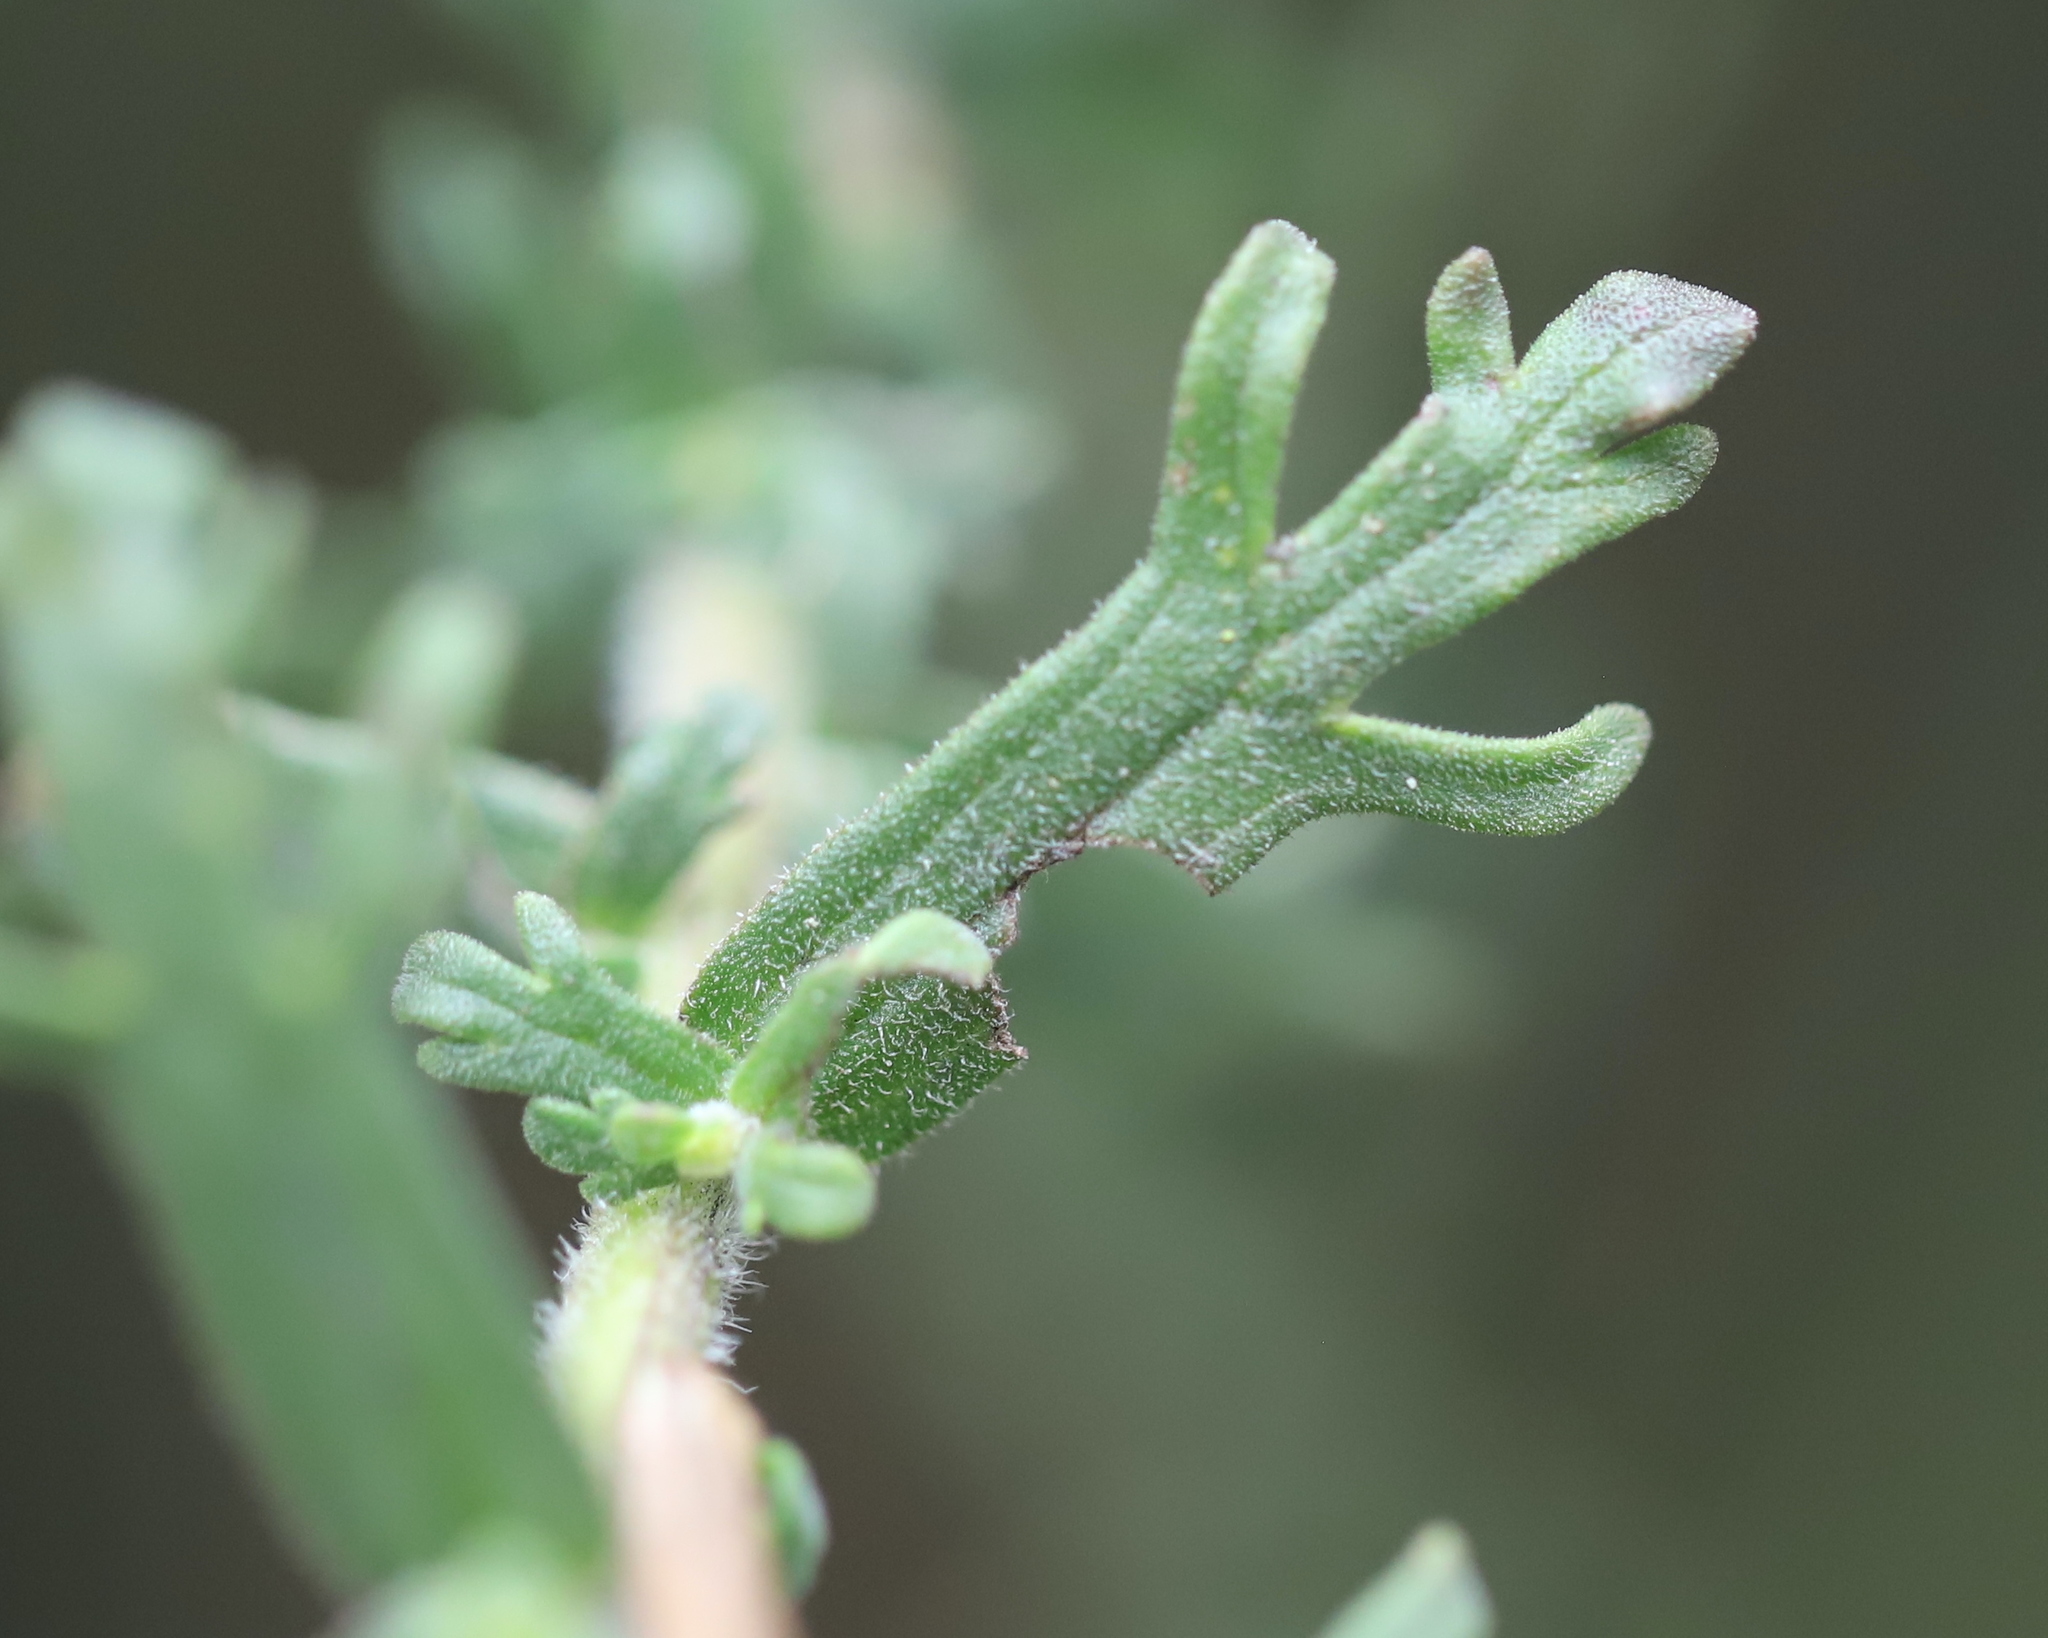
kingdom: Plantae
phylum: Tracheophyta
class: Magnoliopsida
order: Lamiales
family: Orobanchaceae
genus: Castilleja
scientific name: Castilleja fissifolia
